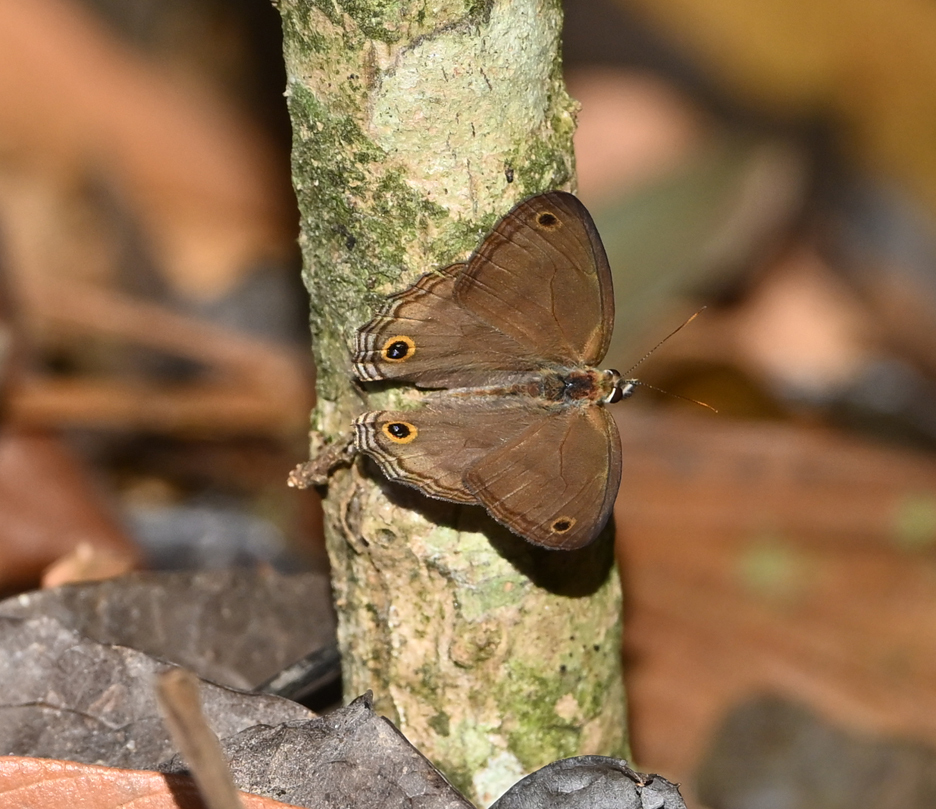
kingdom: Animalia
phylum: Arthropoda
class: Insecta
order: Lepidoptera
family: Nymphalidae
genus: Argyreuptychia
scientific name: Argyreuptychia penelope
